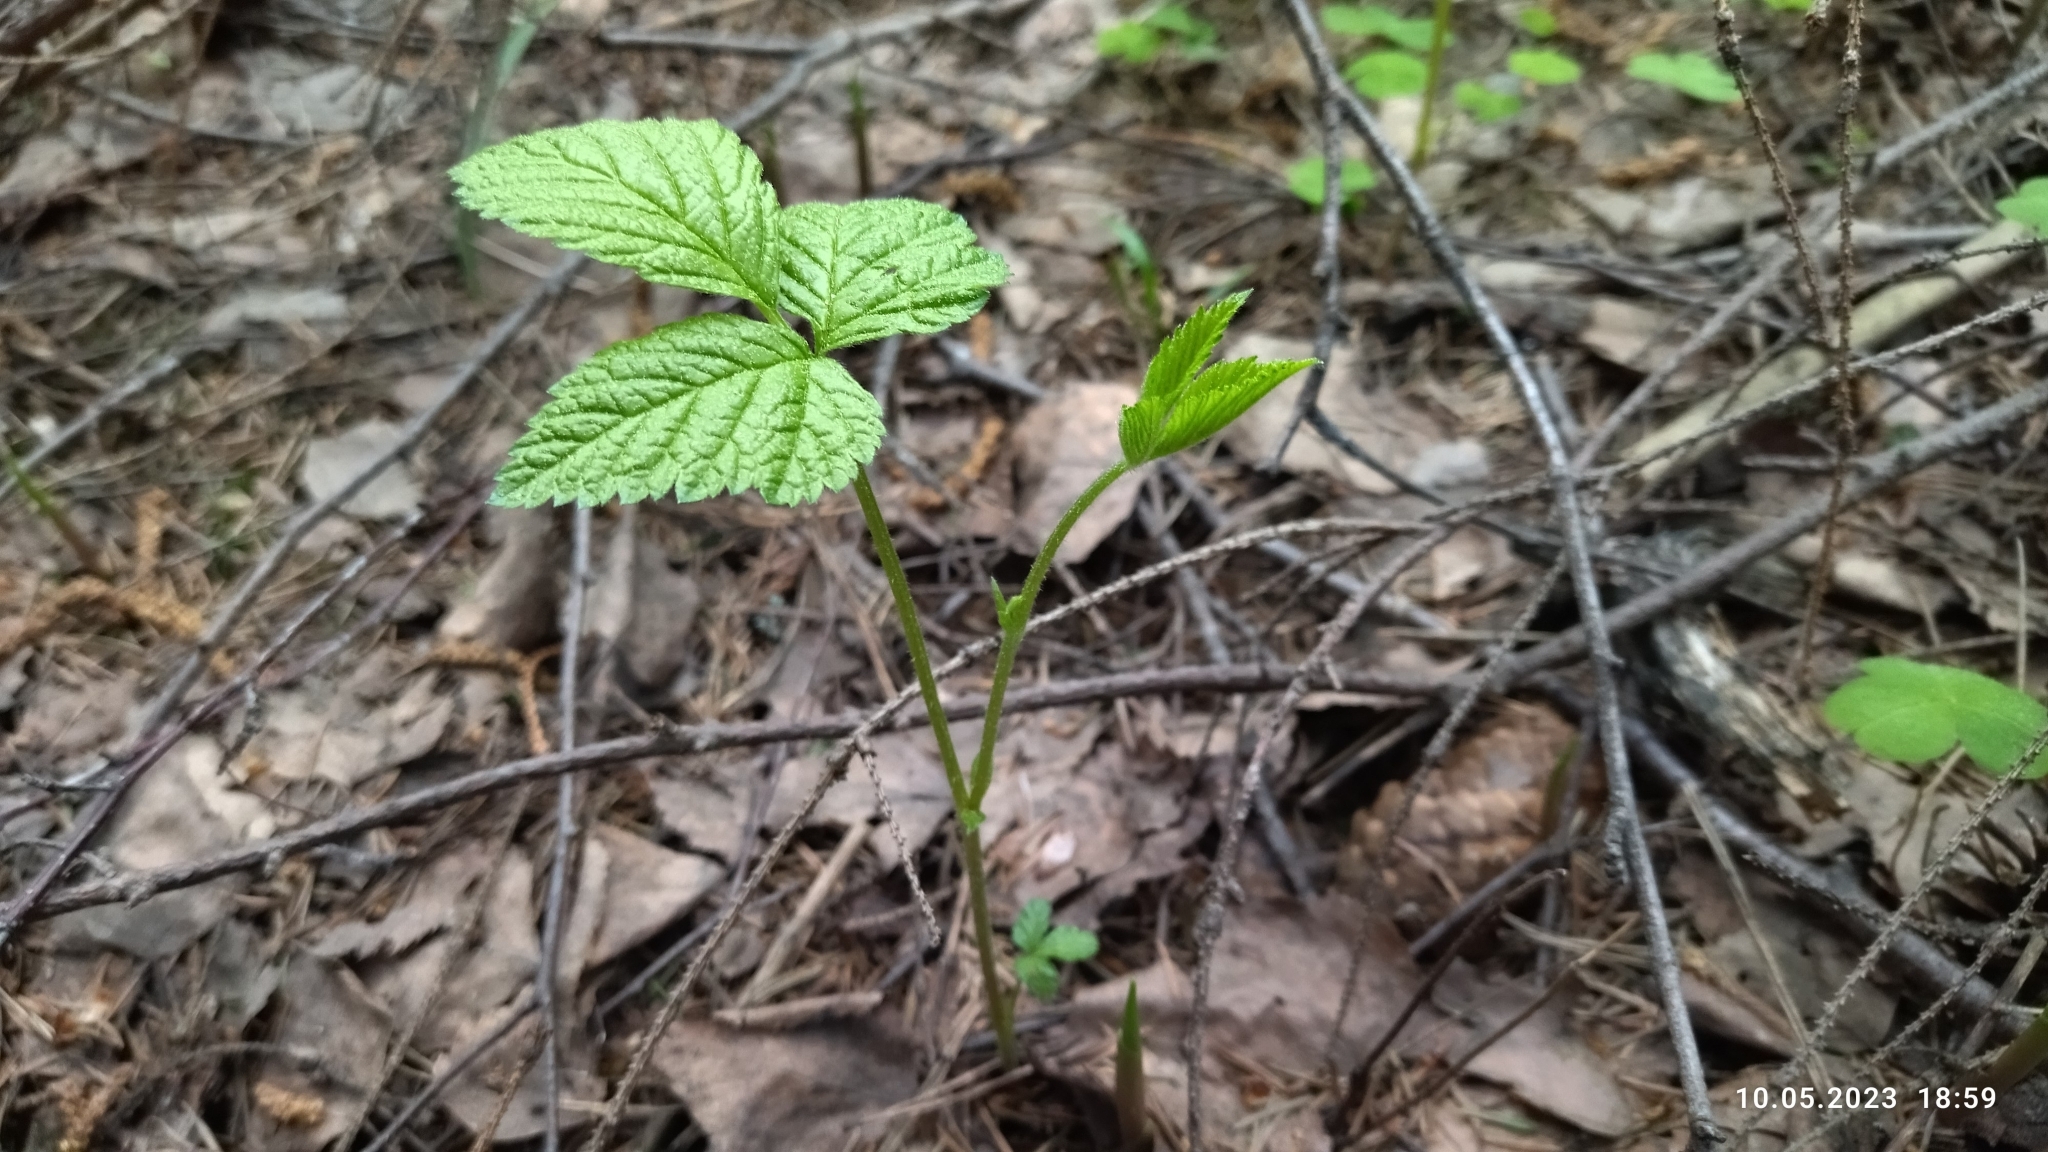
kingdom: Plantae
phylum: Tracheophyta
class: Magnoliopsida
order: Rosales
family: Rosaceae
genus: Rubus
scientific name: Rubus saxatilis
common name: Stone bramble
